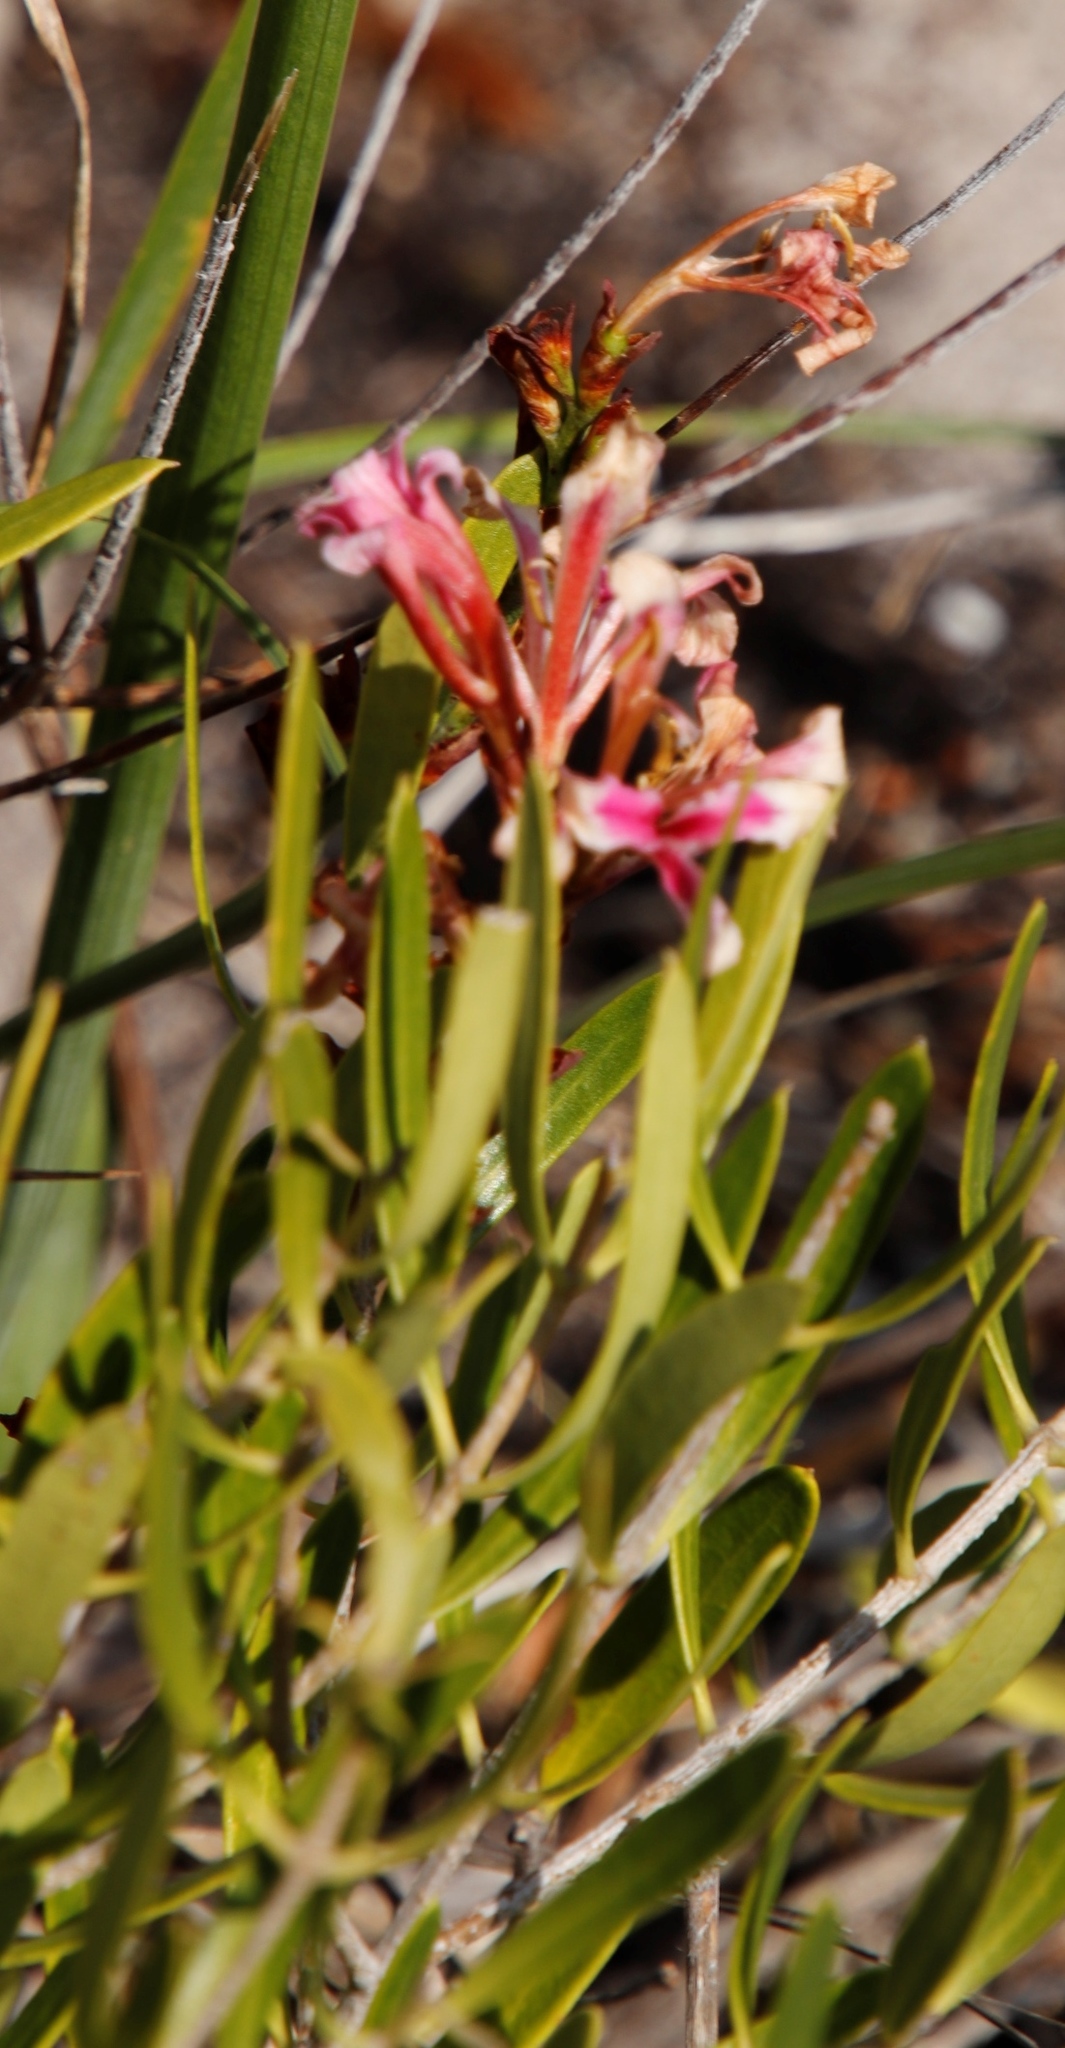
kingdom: Plantae
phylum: Tracheophyta
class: Liliopsida
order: Asparagales
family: Iridaceae
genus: Tritoniopsis
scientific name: Tritoniopsis dodii
